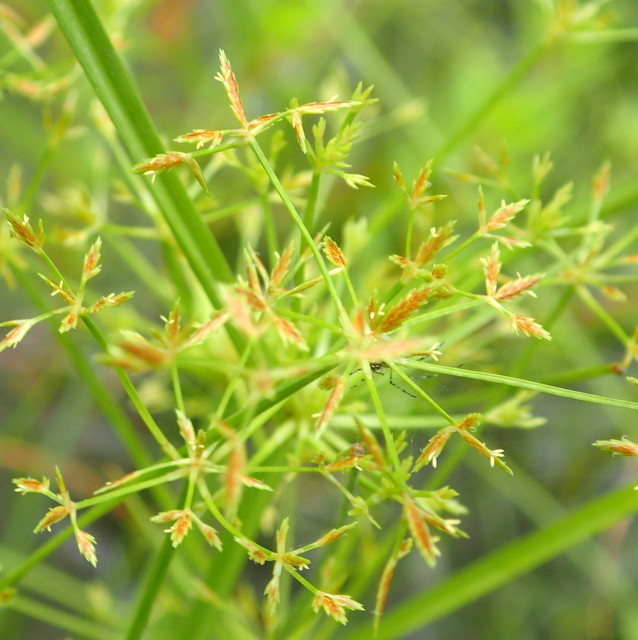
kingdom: Plantae
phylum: Tracheophyta
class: Liliopsida
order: Poales
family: Cyperaceae
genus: Cyperus
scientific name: Cyperus haspan
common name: Haspan flatsedge
